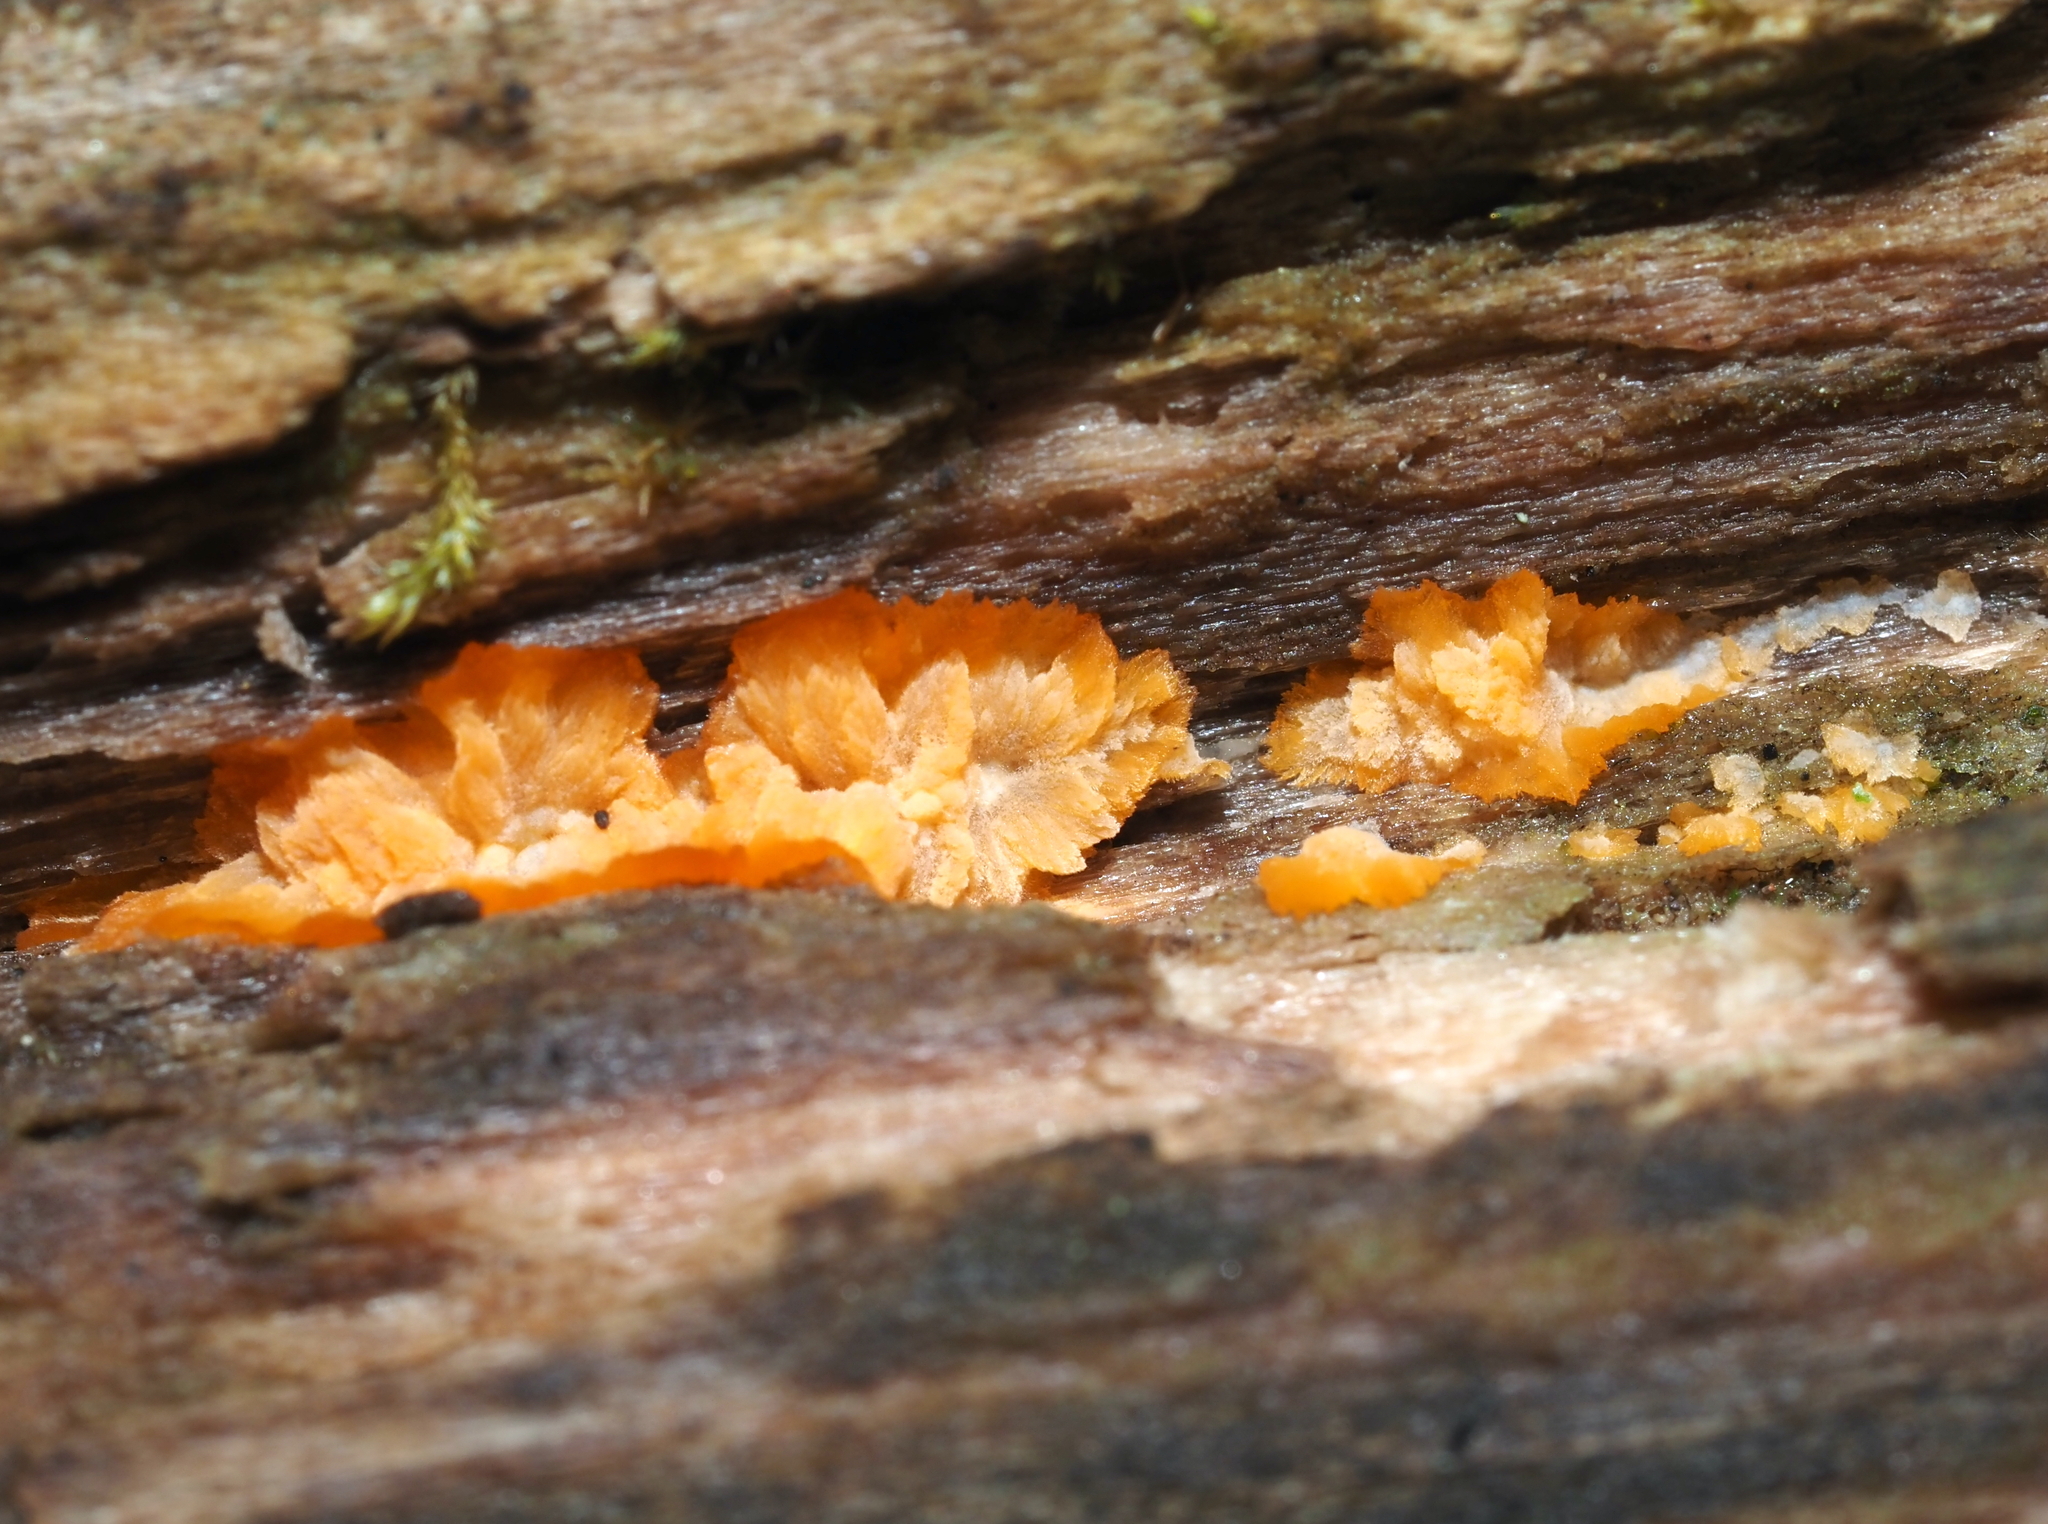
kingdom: Fungi
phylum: Basidiomycota
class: Agaricomycetes
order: Polyporales
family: Meruliaceae
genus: Phlebia
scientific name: Phlebia radiata
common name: Wrinkled crust
